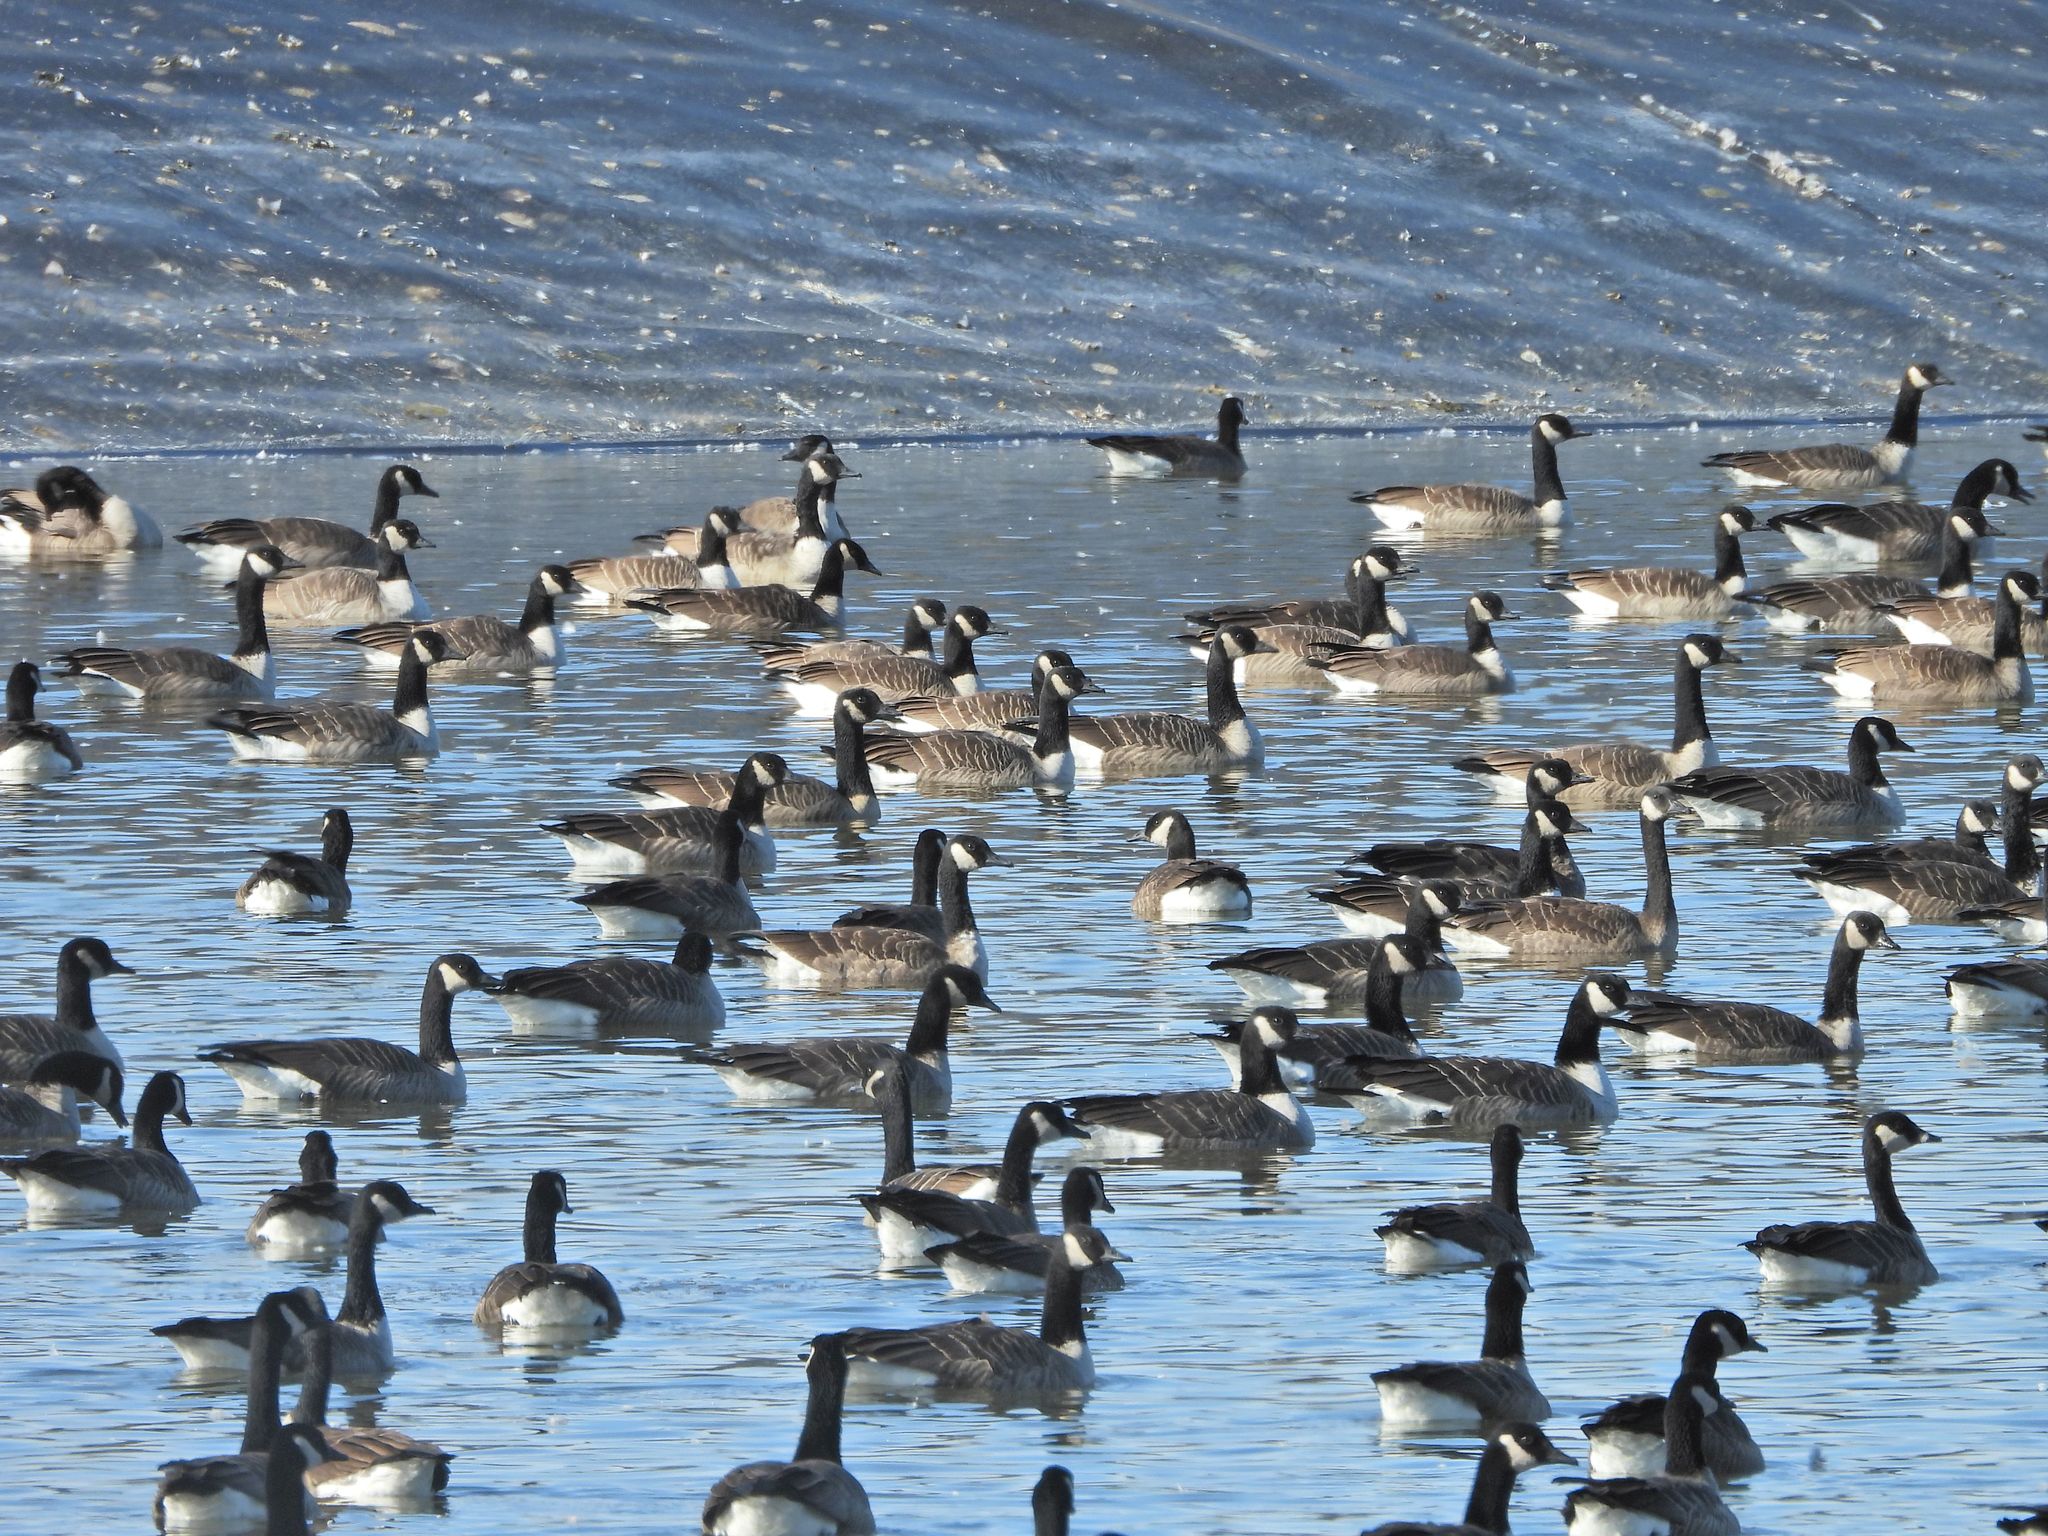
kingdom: Animalia
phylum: Chordata
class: Aves
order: Anseriformes
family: Anatidae
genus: Branta
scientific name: Branta canadensis
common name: Canada goose
